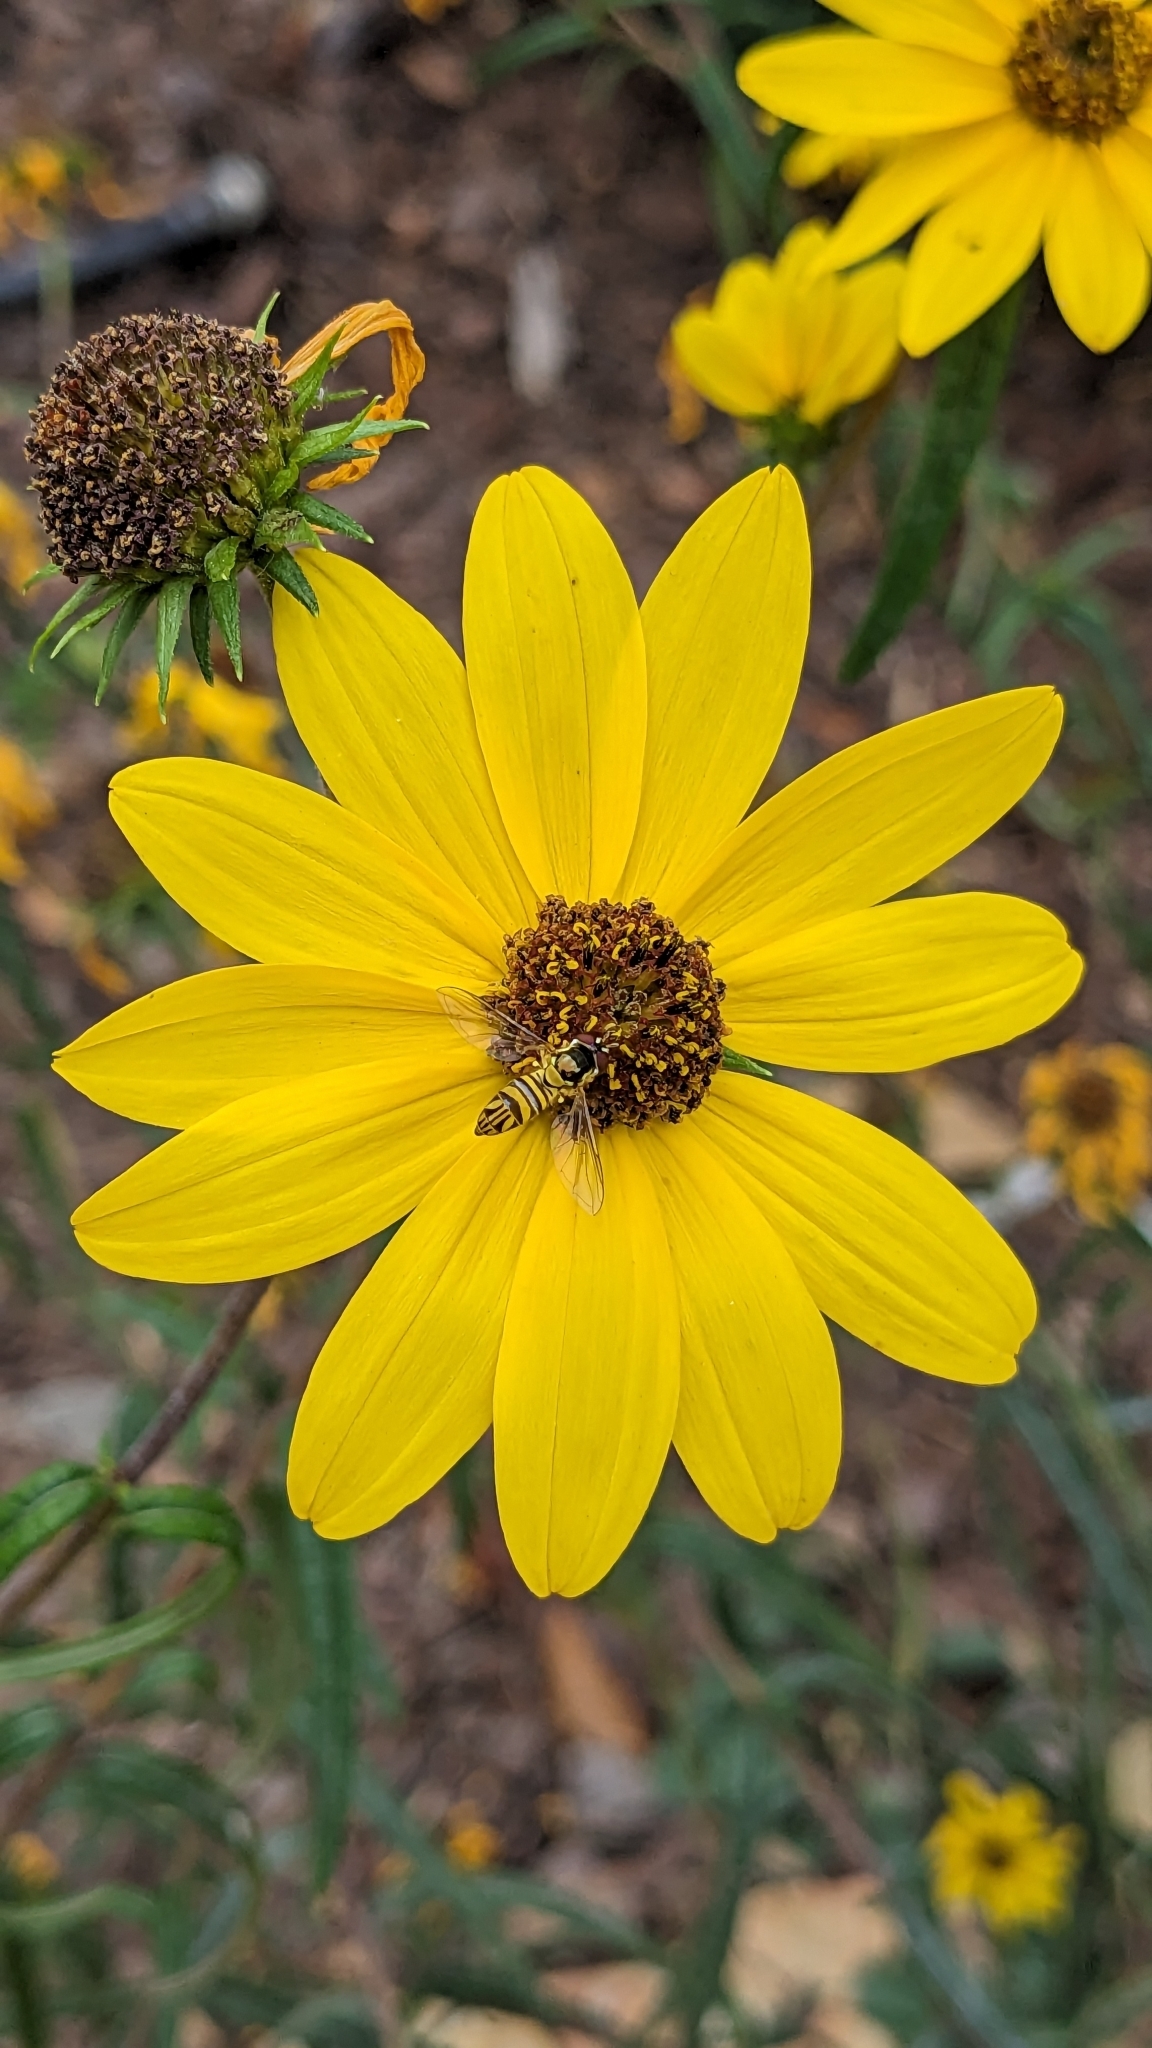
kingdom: Animalia
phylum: Arthropoda
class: Insecta
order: Diptera
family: Syrphidae
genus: Allograpta
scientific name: Allograpta obliqua
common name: Common oblique syrphid
